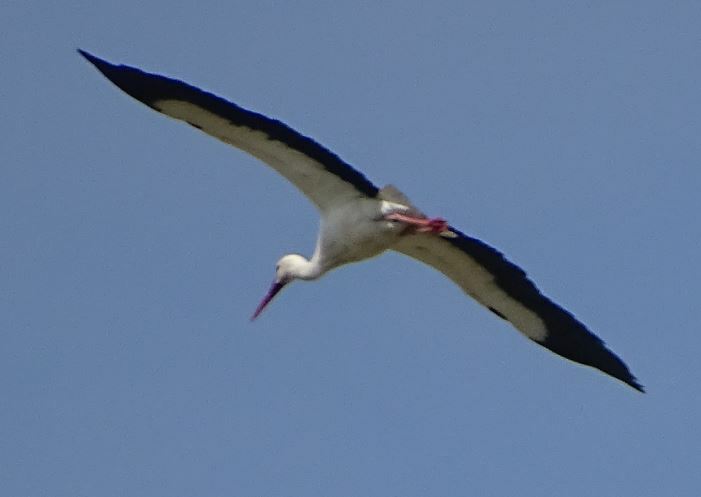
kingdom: Animalia
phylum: Chordata
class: Aves
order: Ciconiiformes
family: Ciconiidae
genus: Ciconia
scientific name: Ciconia ciconia
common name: White stork
